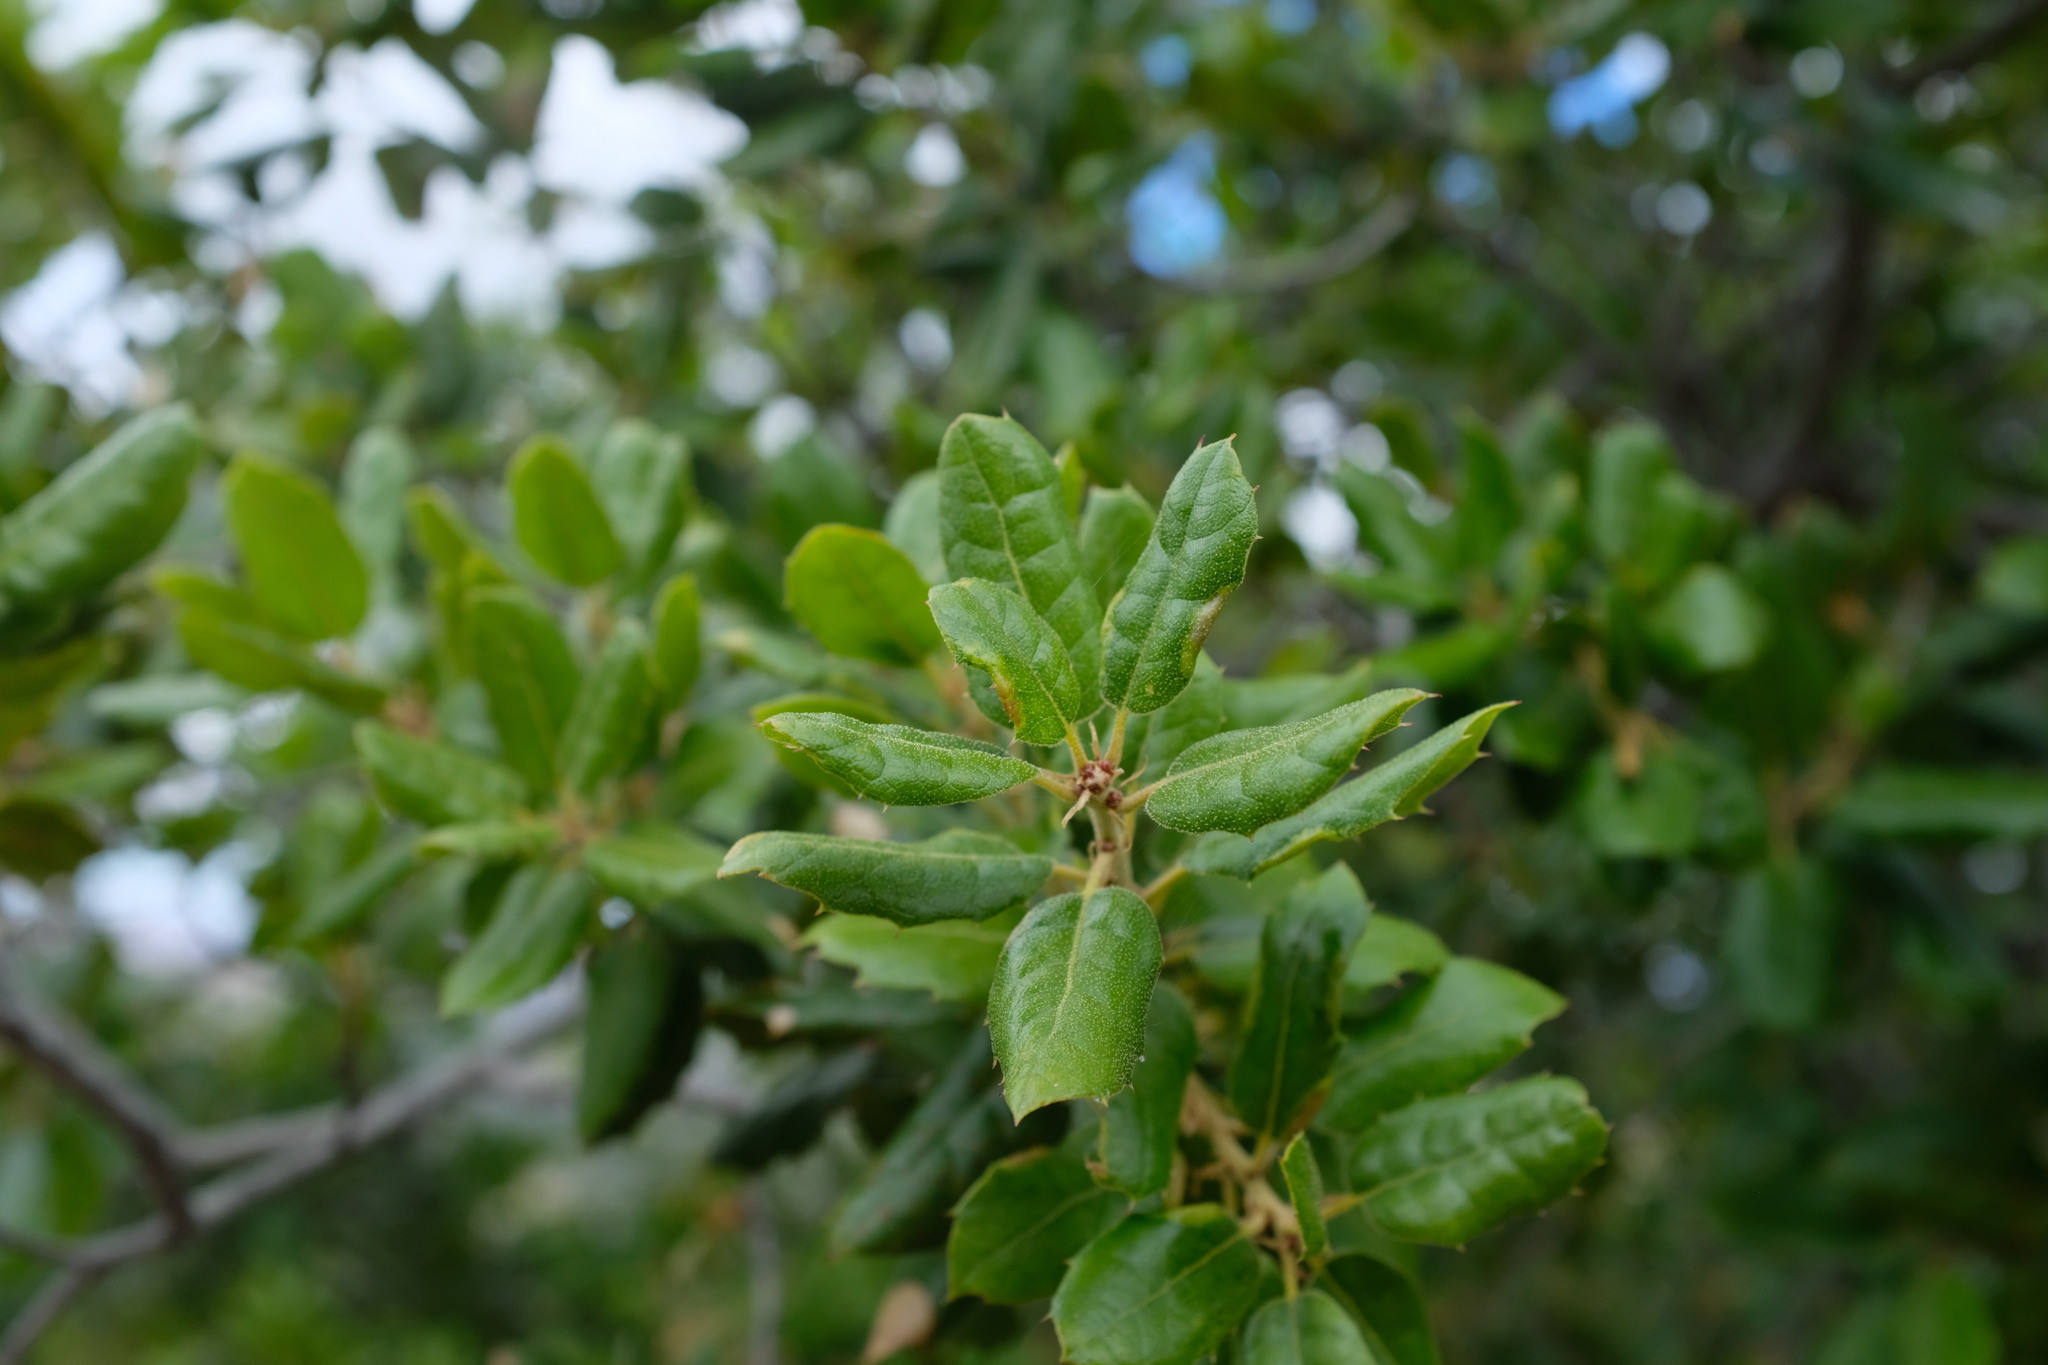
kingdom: Plantae
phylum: Tracheophyta
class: Magnoliopsida
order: Fagales
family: Fagaceae
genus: Quercus
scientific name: Quercus agrifolia
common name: California live oak
